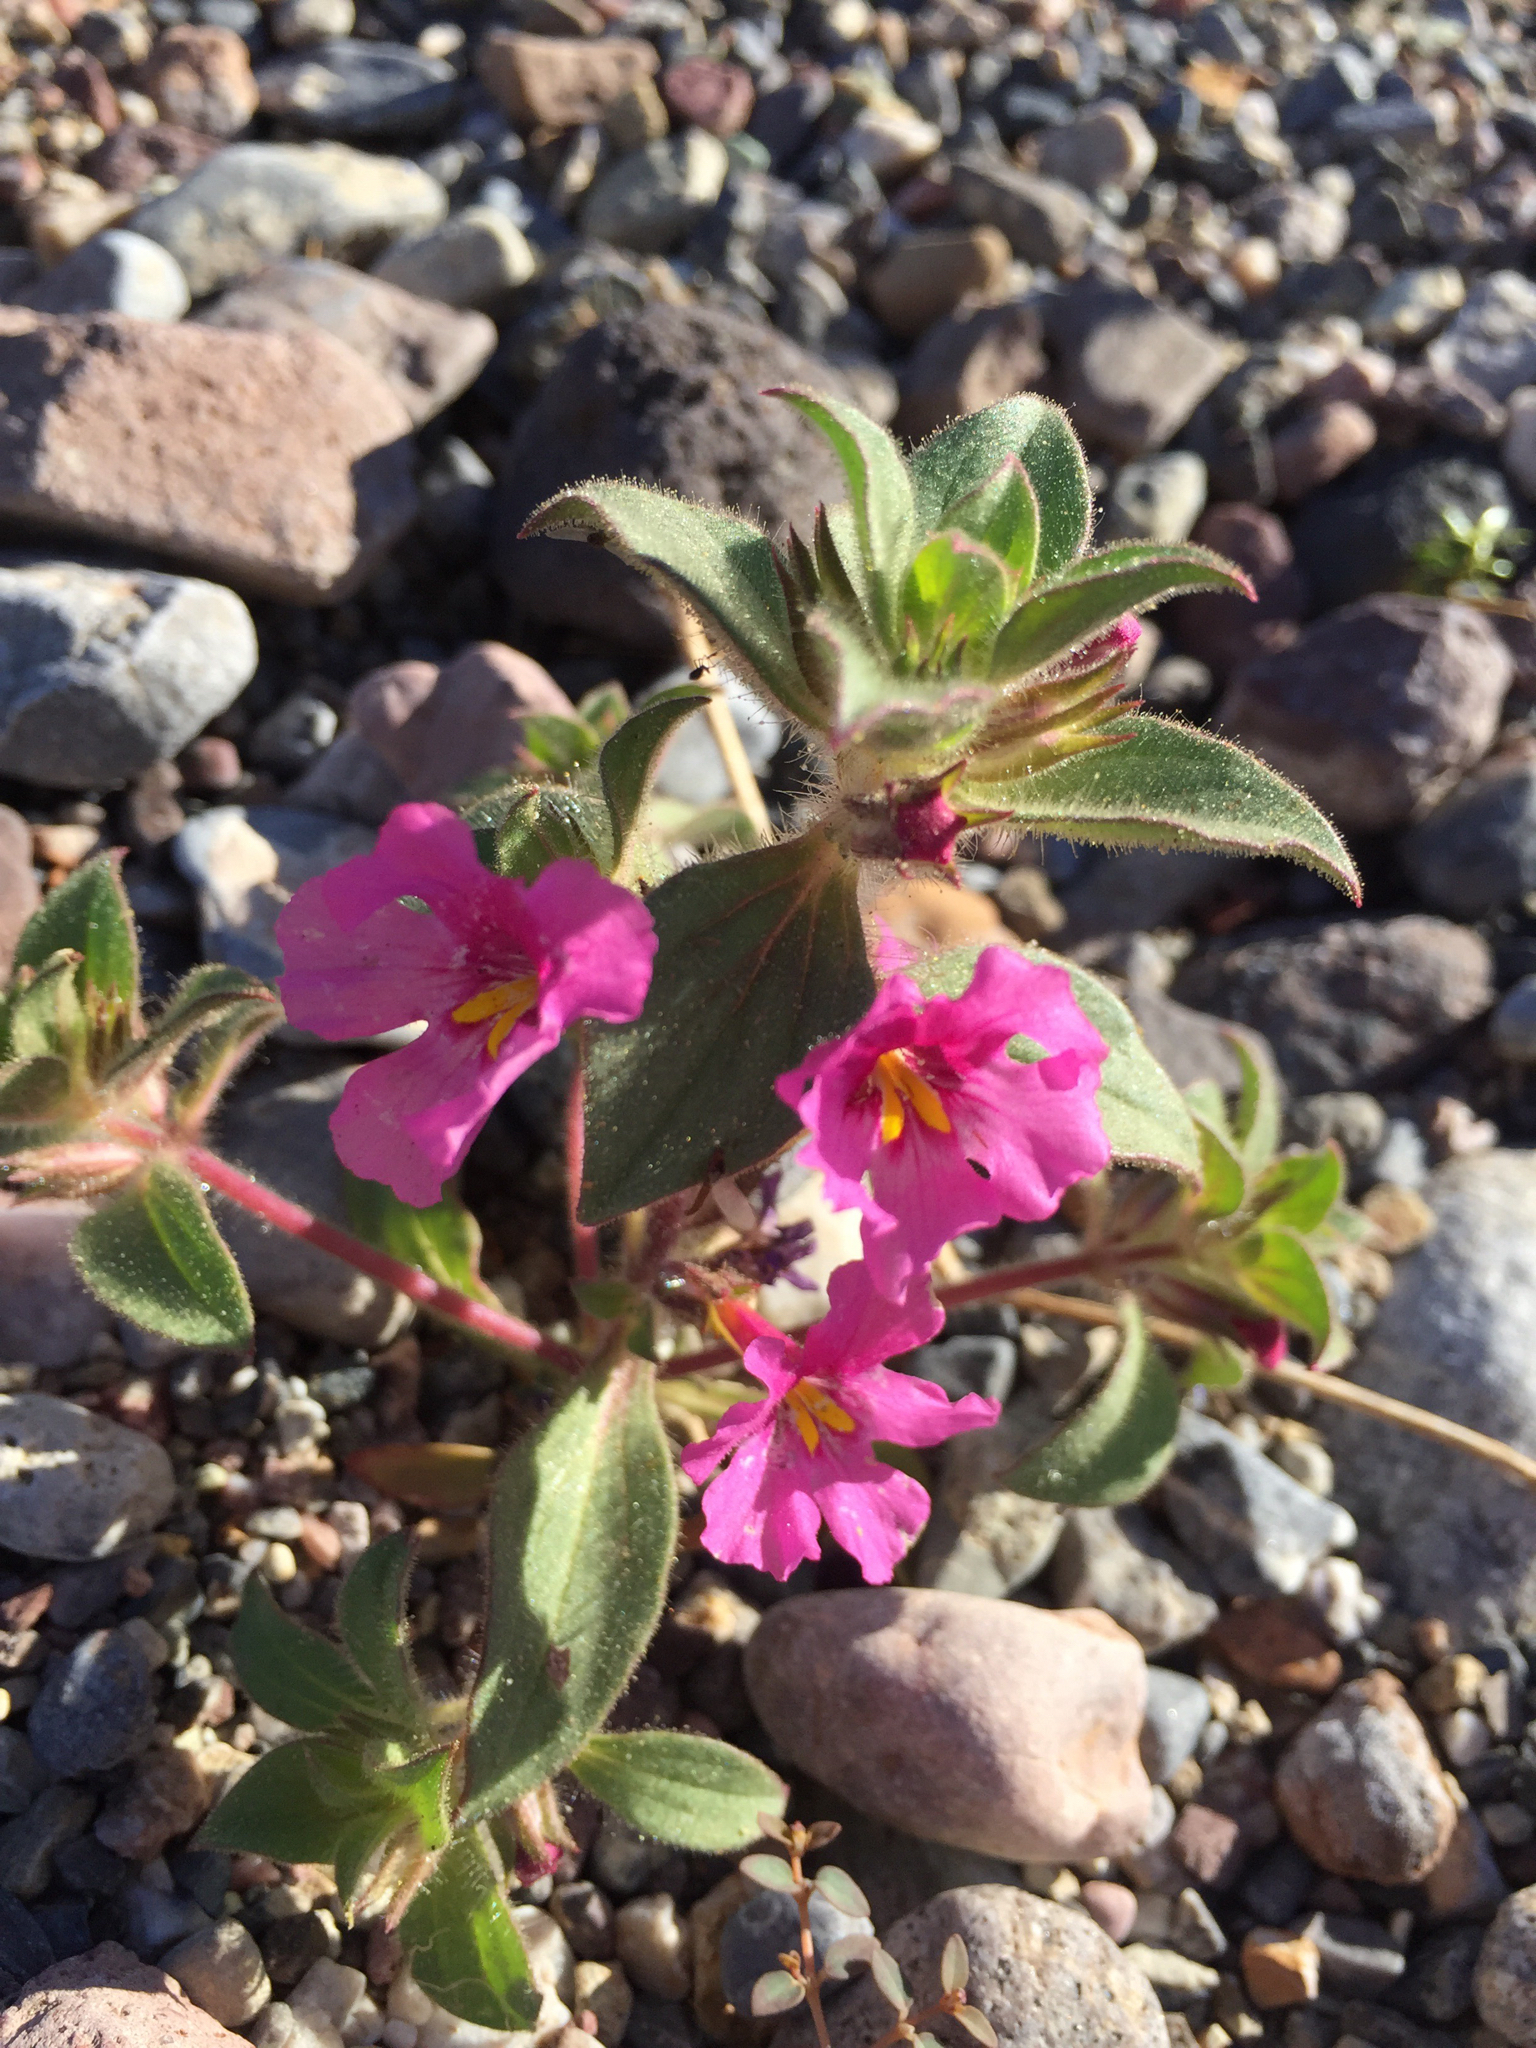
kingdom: Plantae
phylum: Tracheophyta
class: Magnoliopsida
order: Lamiales
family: Phrymaceae
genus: Diplacus
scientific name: Diplacus bigelovii
